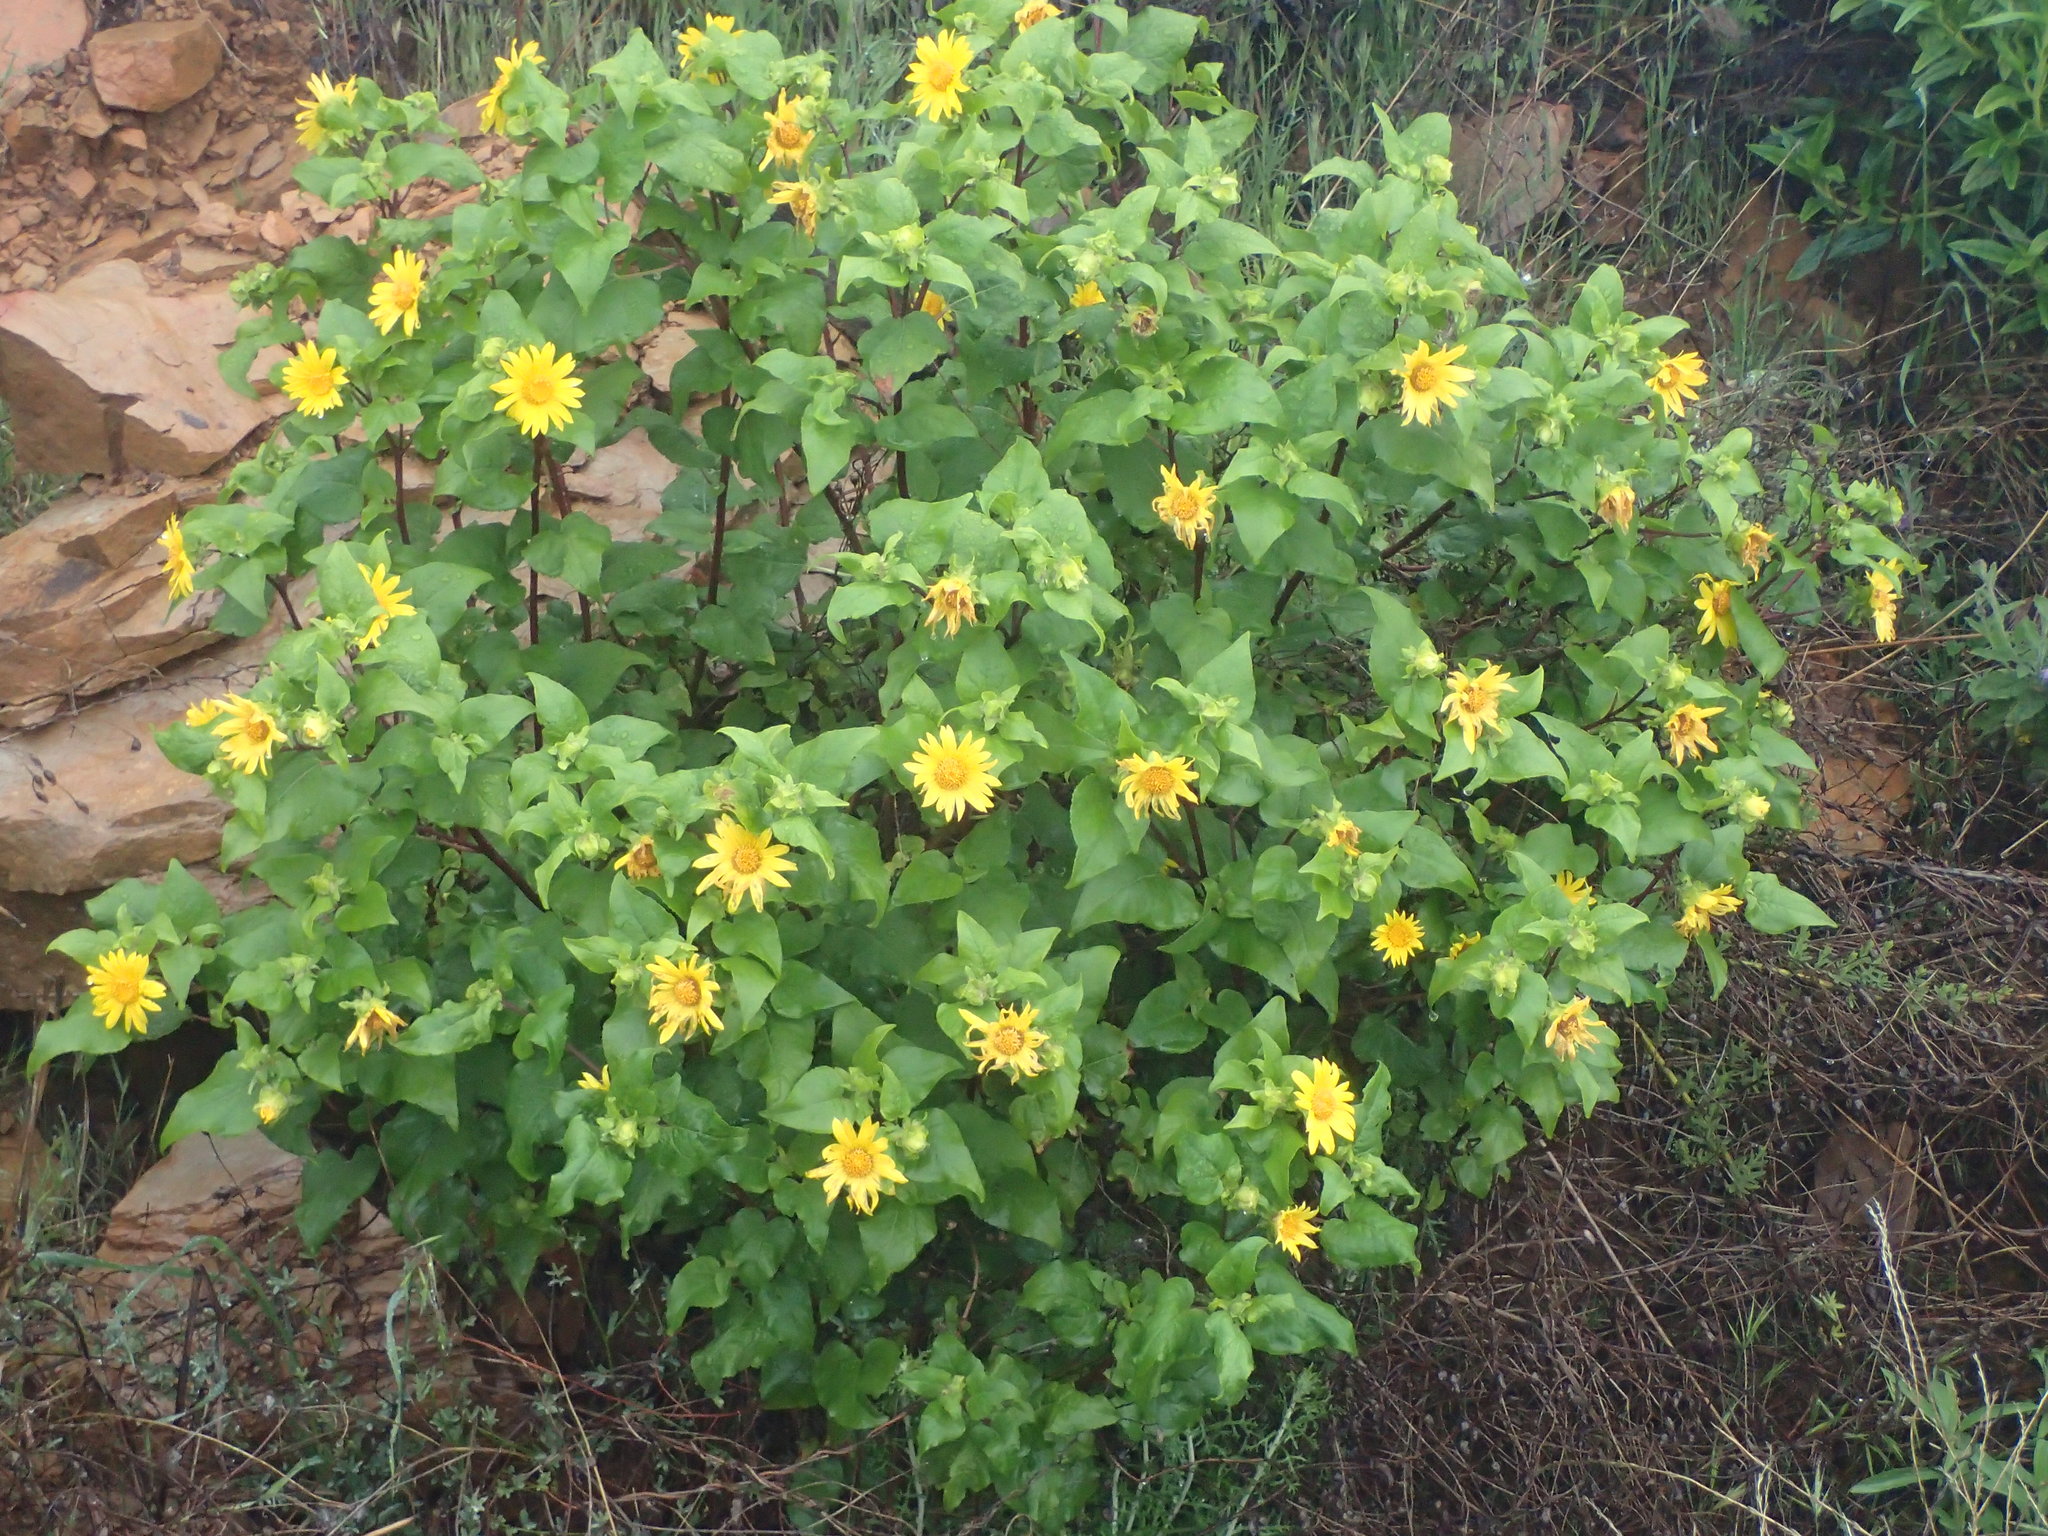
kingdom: Plantae
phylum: Tracheophyta
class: Magnoliopsida
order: Asterales
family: Asteraceae
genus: Venegasia
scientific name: Venegasia carpesioides
